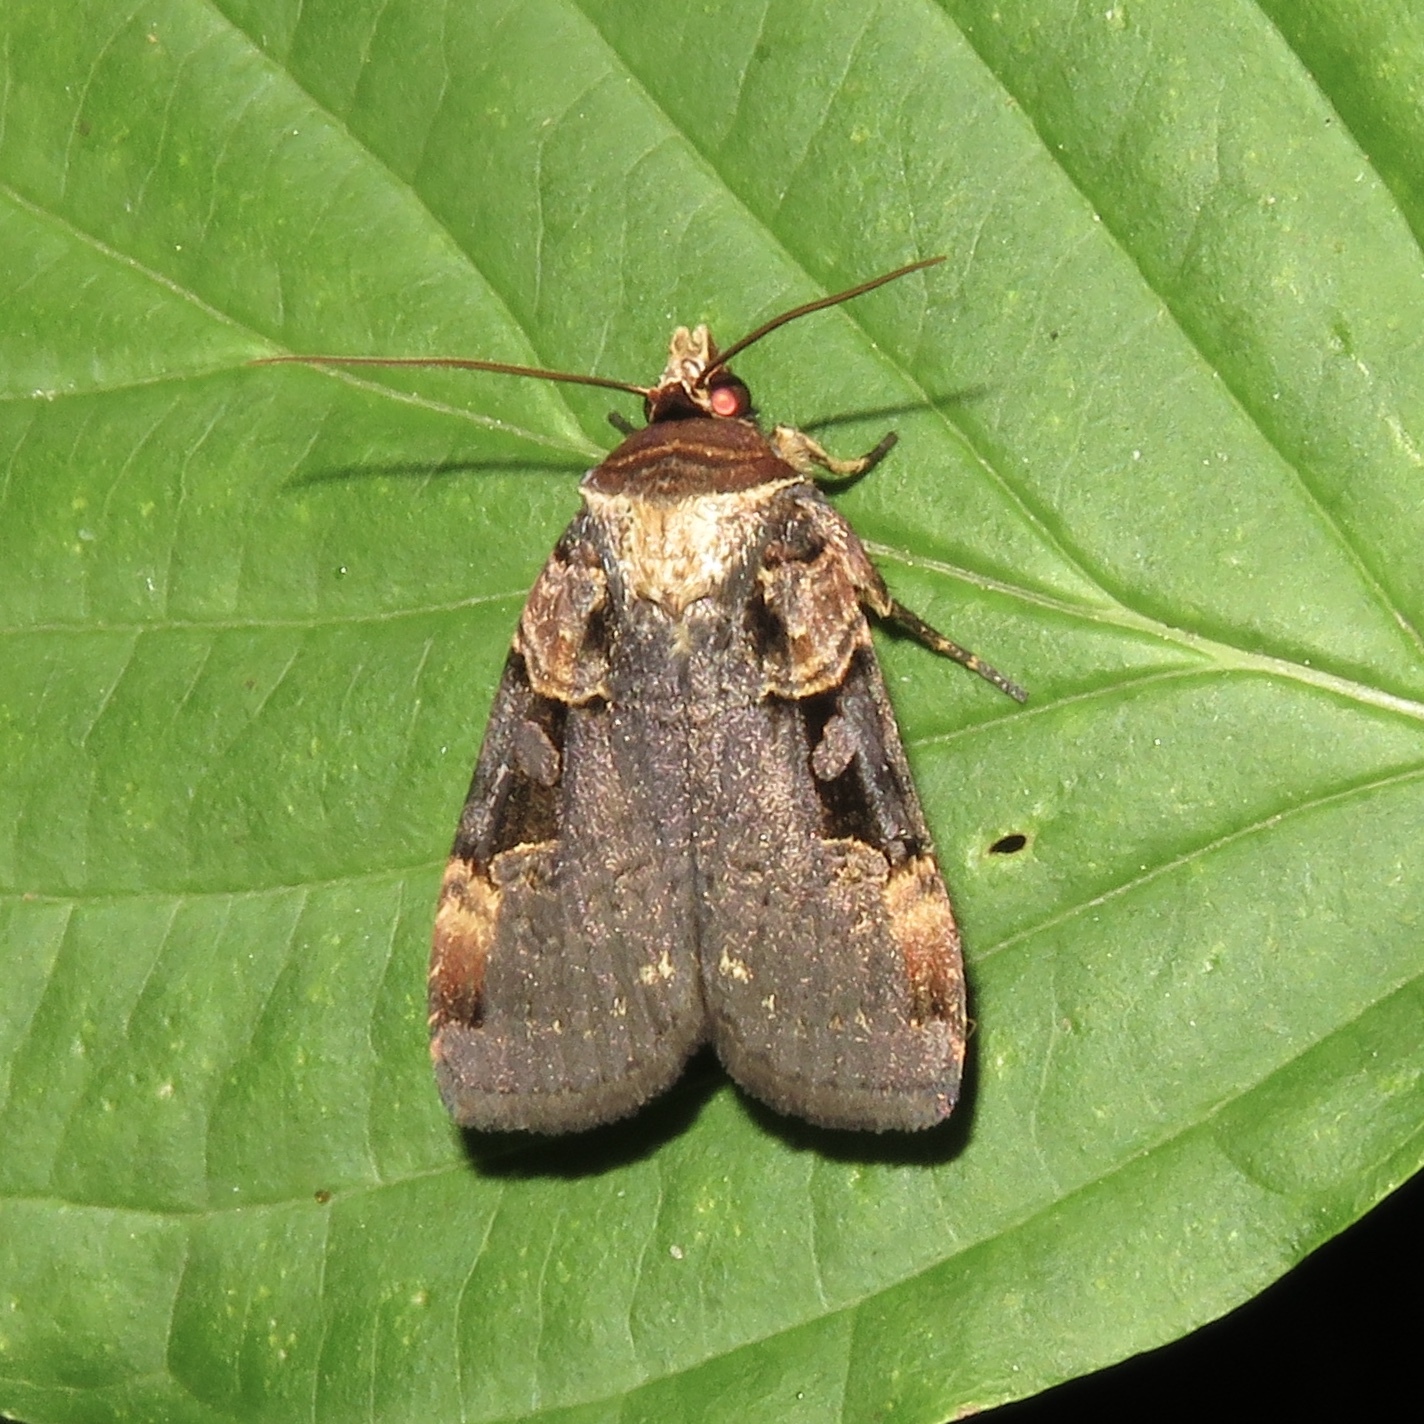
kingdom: Animalia
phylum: Arthropoda
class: Insecta
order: Lepidoptera
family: Noctuidae
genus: Pseudohermonassa
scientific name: Pseudohermonassa bicarnea
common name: Pink spotted dart
